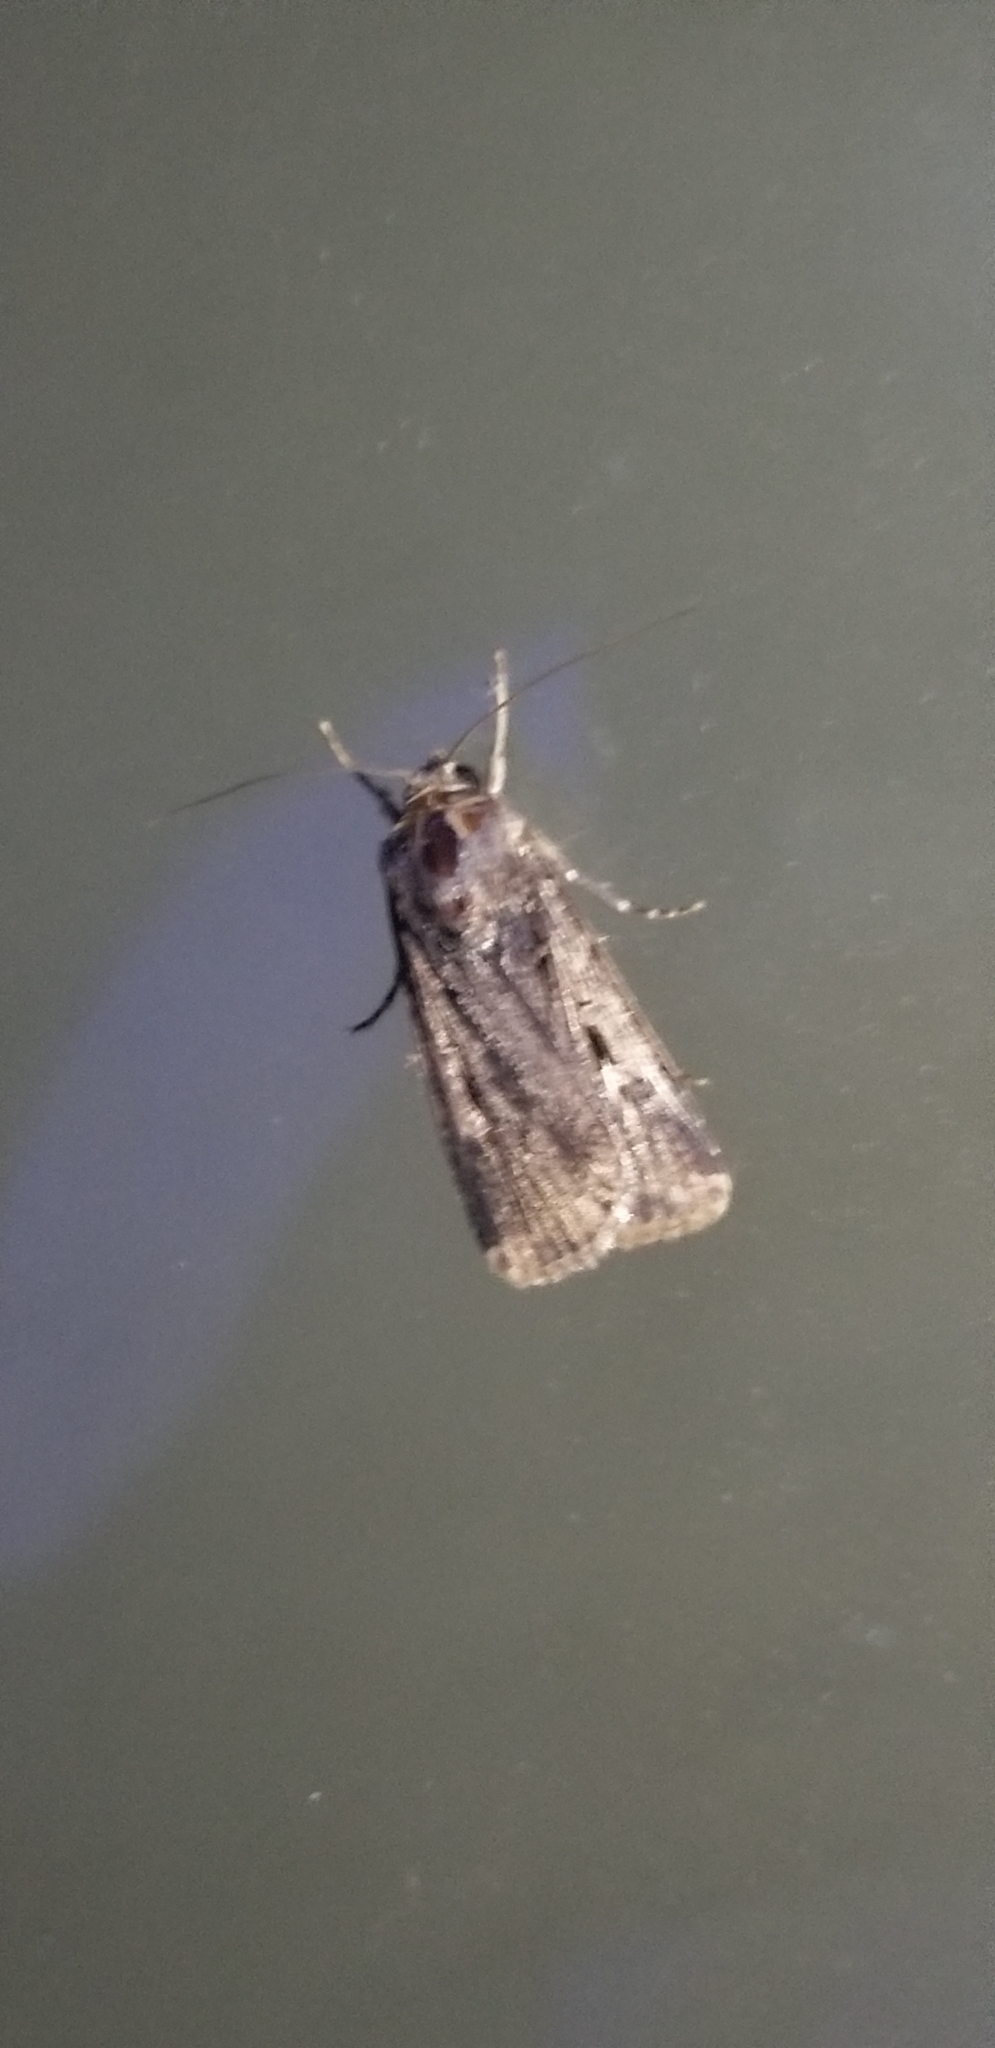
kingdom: Animalia
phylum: Arthropoda
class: Insecta
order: Lepidoptera
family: Noctuidae
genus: Feltia
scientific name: Feltia subterranea
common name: Granulate cutworm
